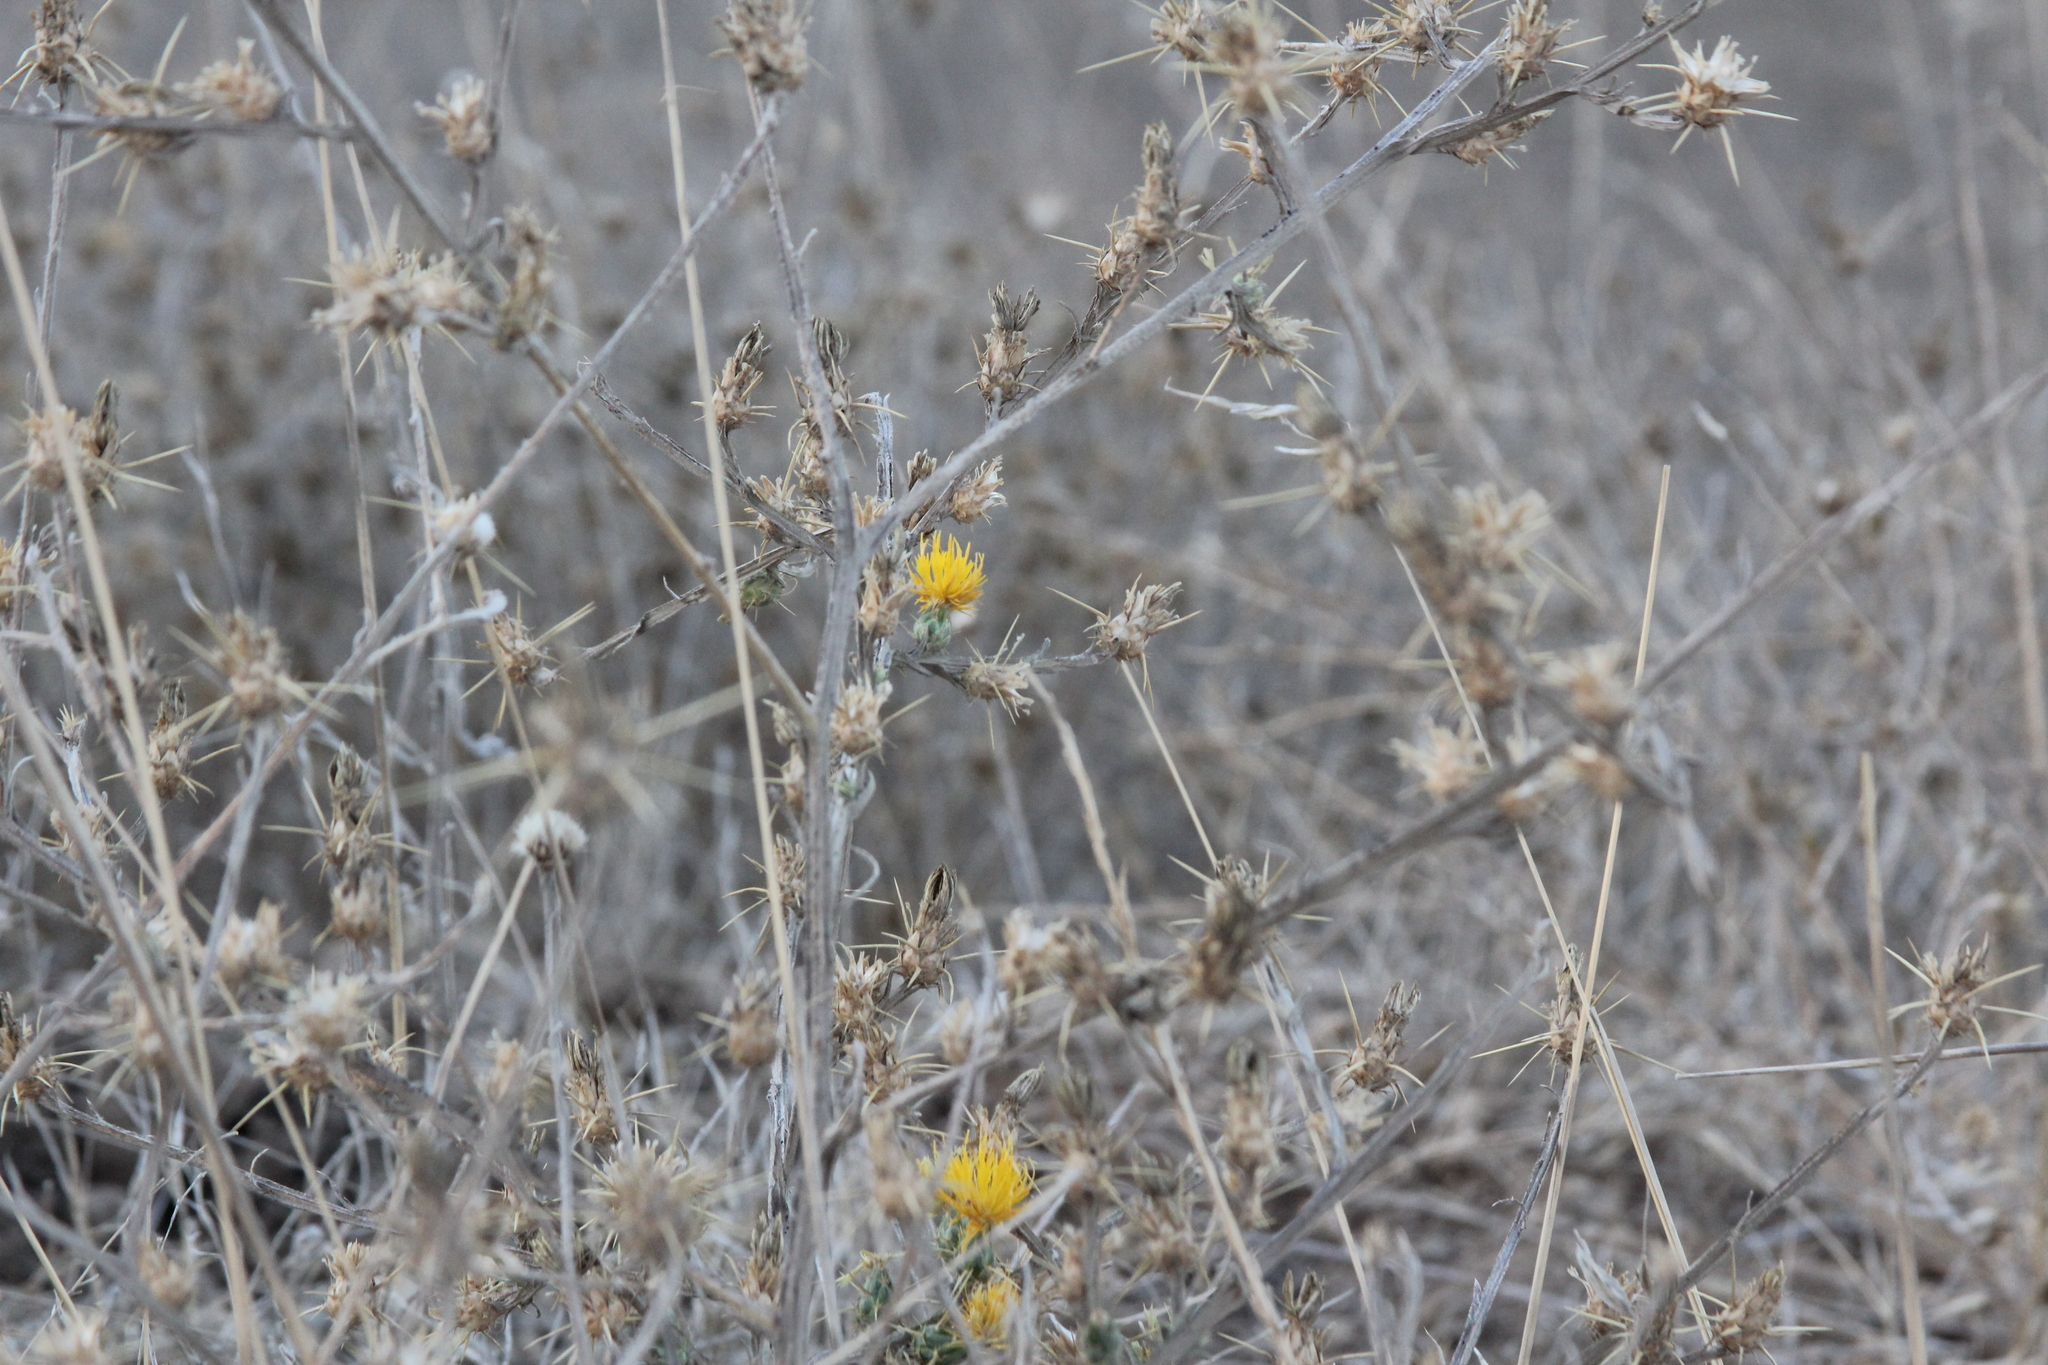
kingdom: Plantae
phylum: Tracheophyta
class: Magnoliopsida
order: Asterales
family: Asteraceae
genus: Centaurea
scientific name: Centaurea solstitialis
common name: Yellow star-thistle
